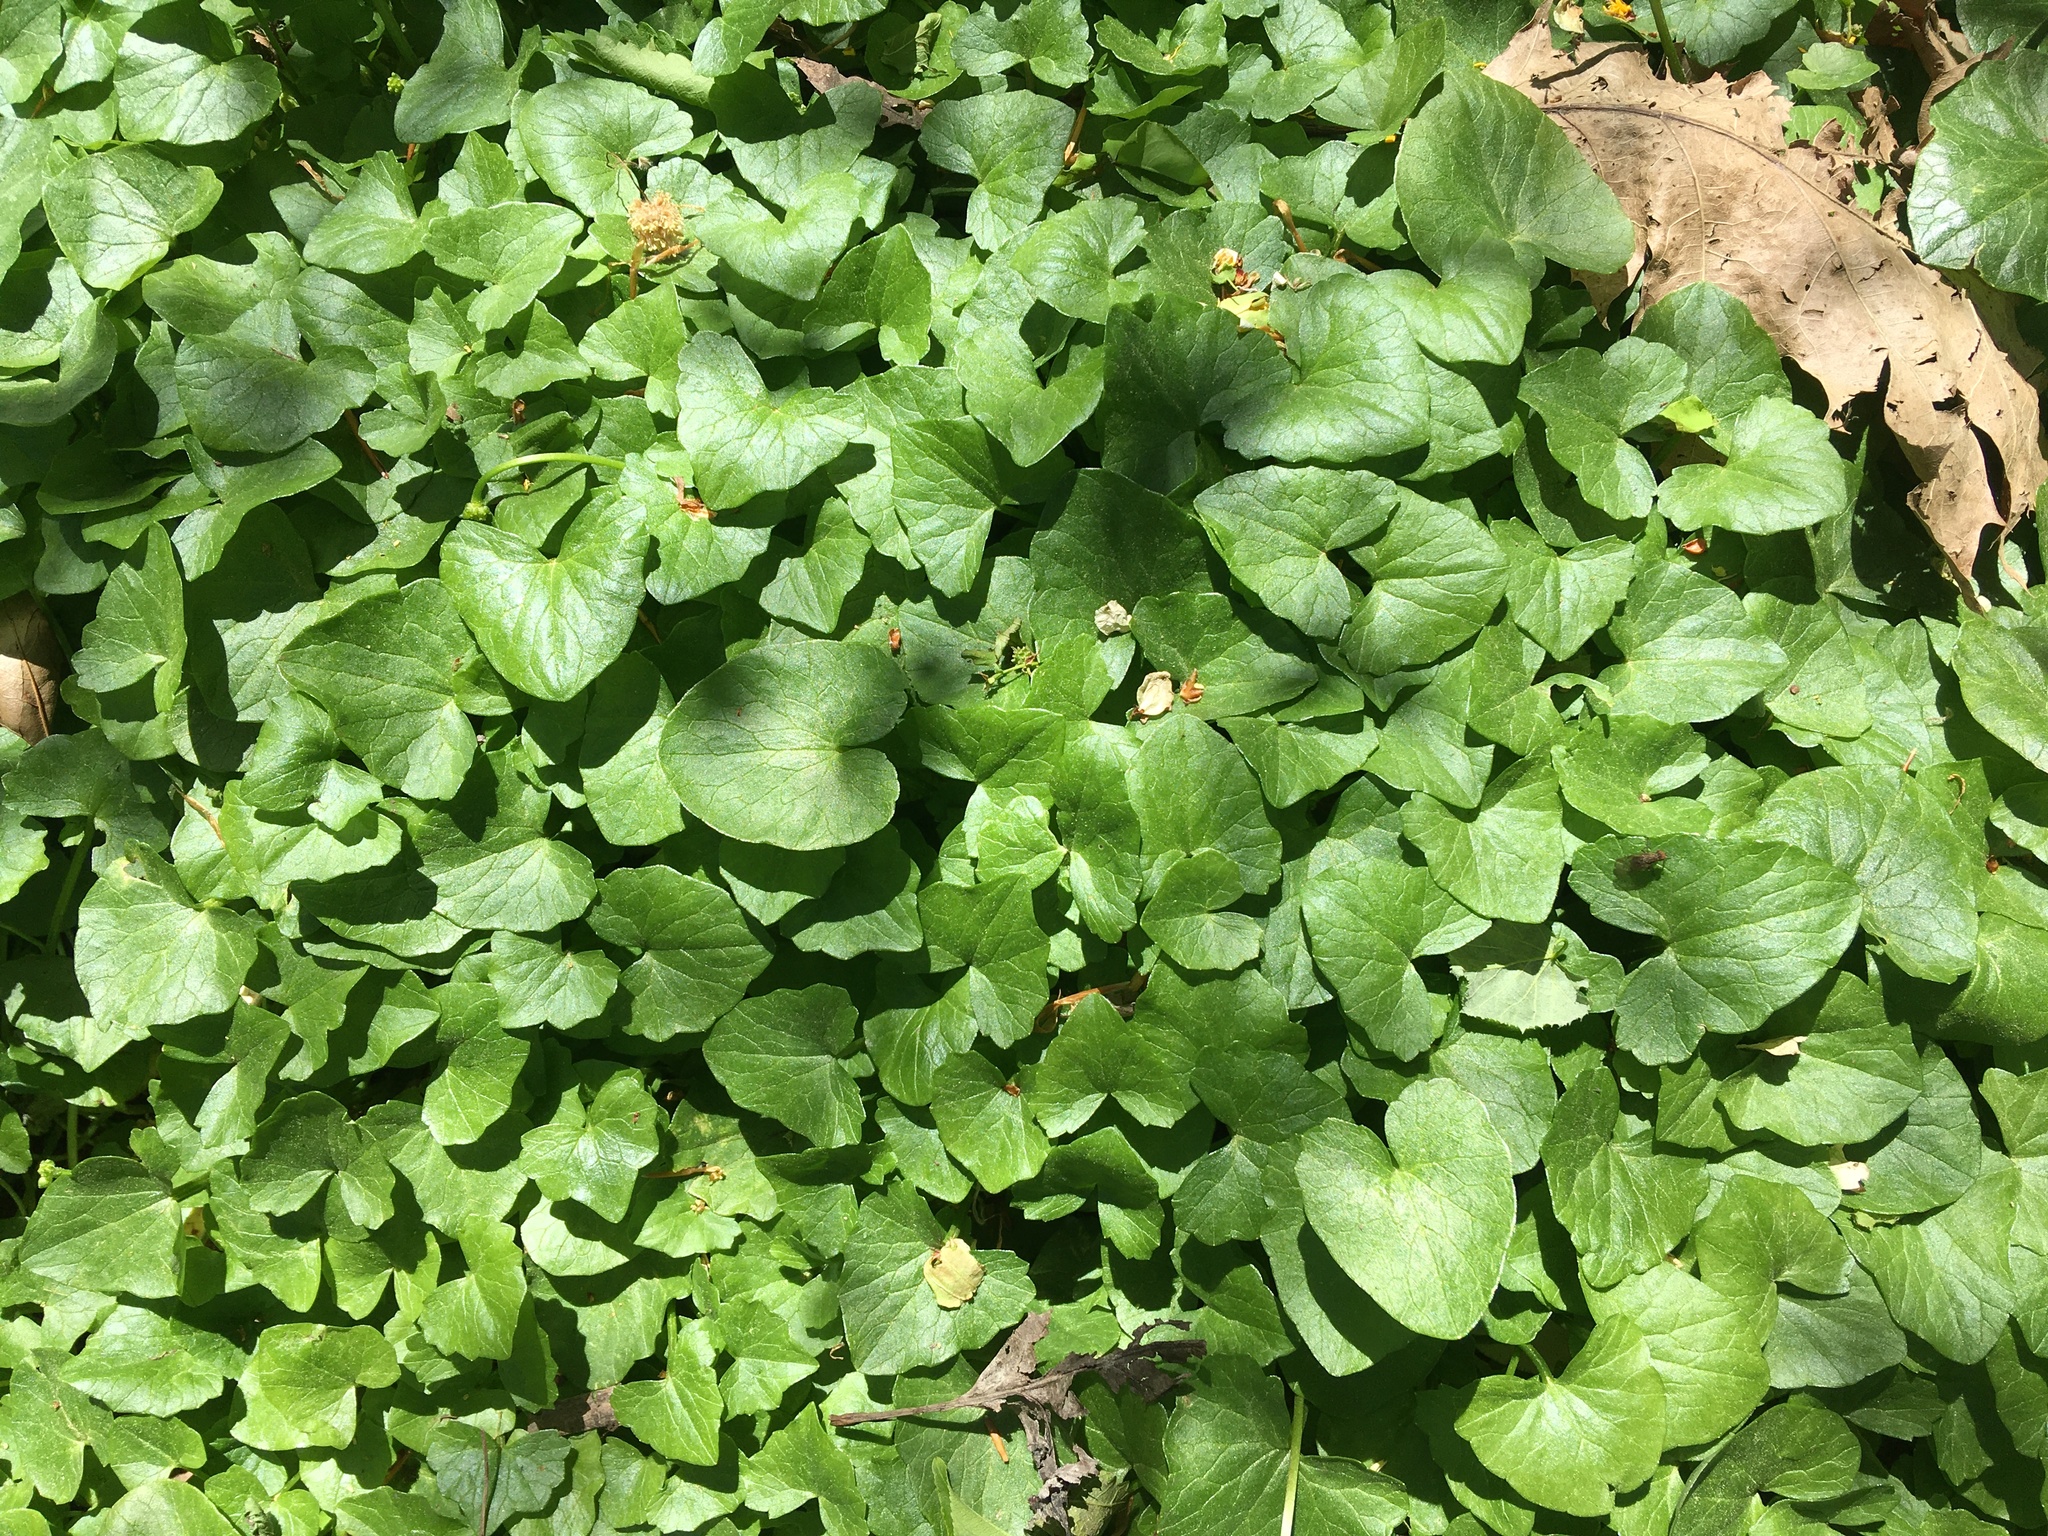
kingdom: Plantae
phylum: Tracheophyta
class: Magnoliopsida
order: Ranunculales
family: Ranunculaceae
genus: Ficaria
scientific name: Ficaria verna
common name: Lesser celandine
